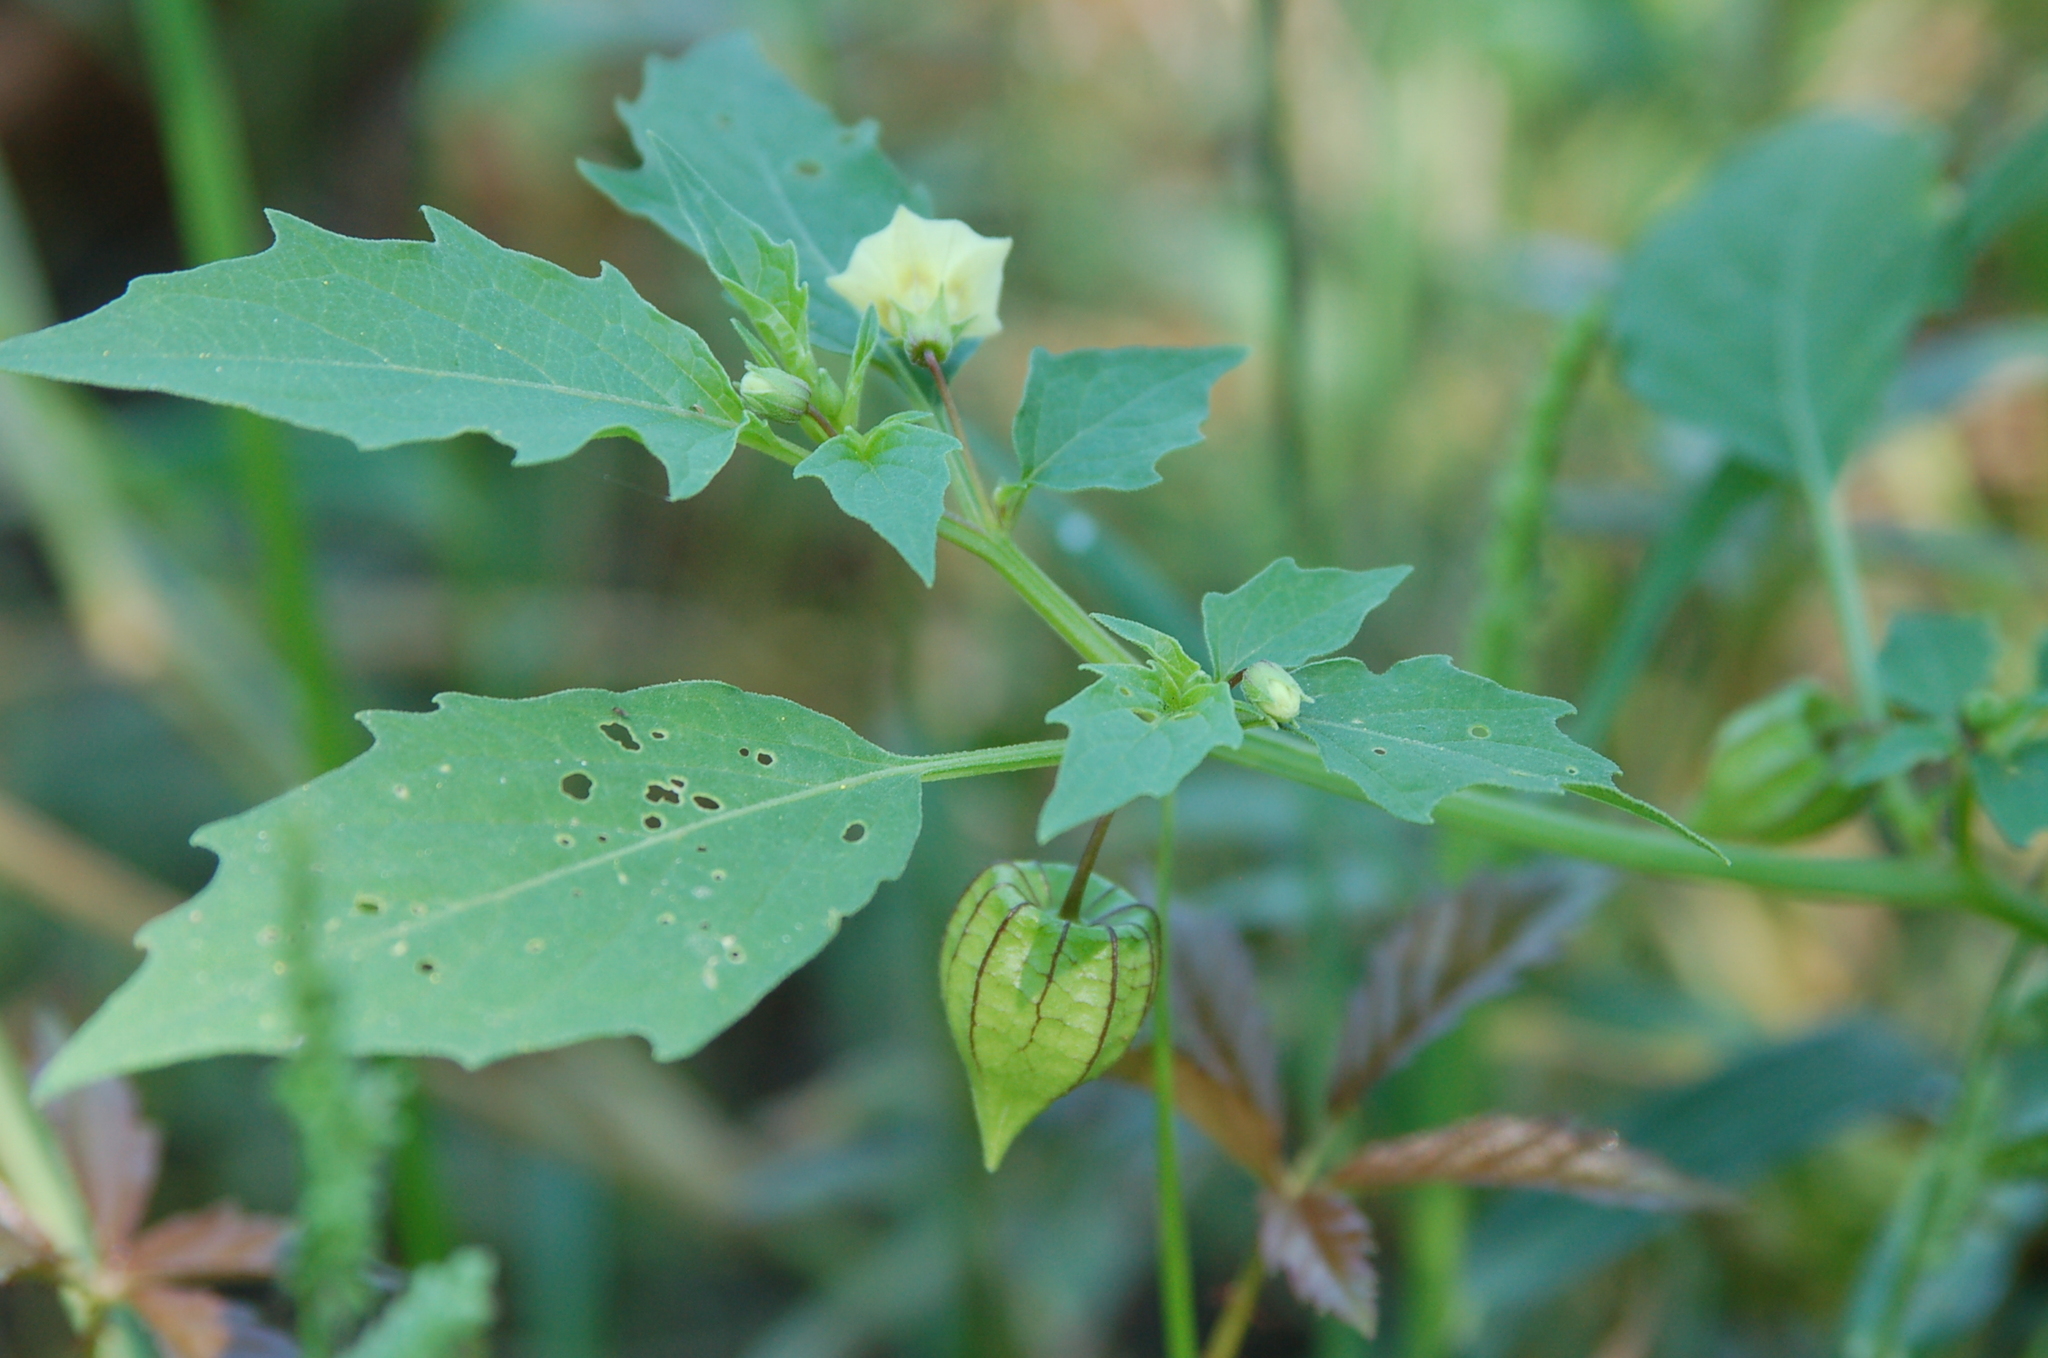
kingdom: Plantae
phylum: Tracheophyta
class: Magnoliopsida
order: Solanales
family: Solanaceae
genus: Physalis
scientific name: Physalis angulata
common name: Angular winter-cherry
